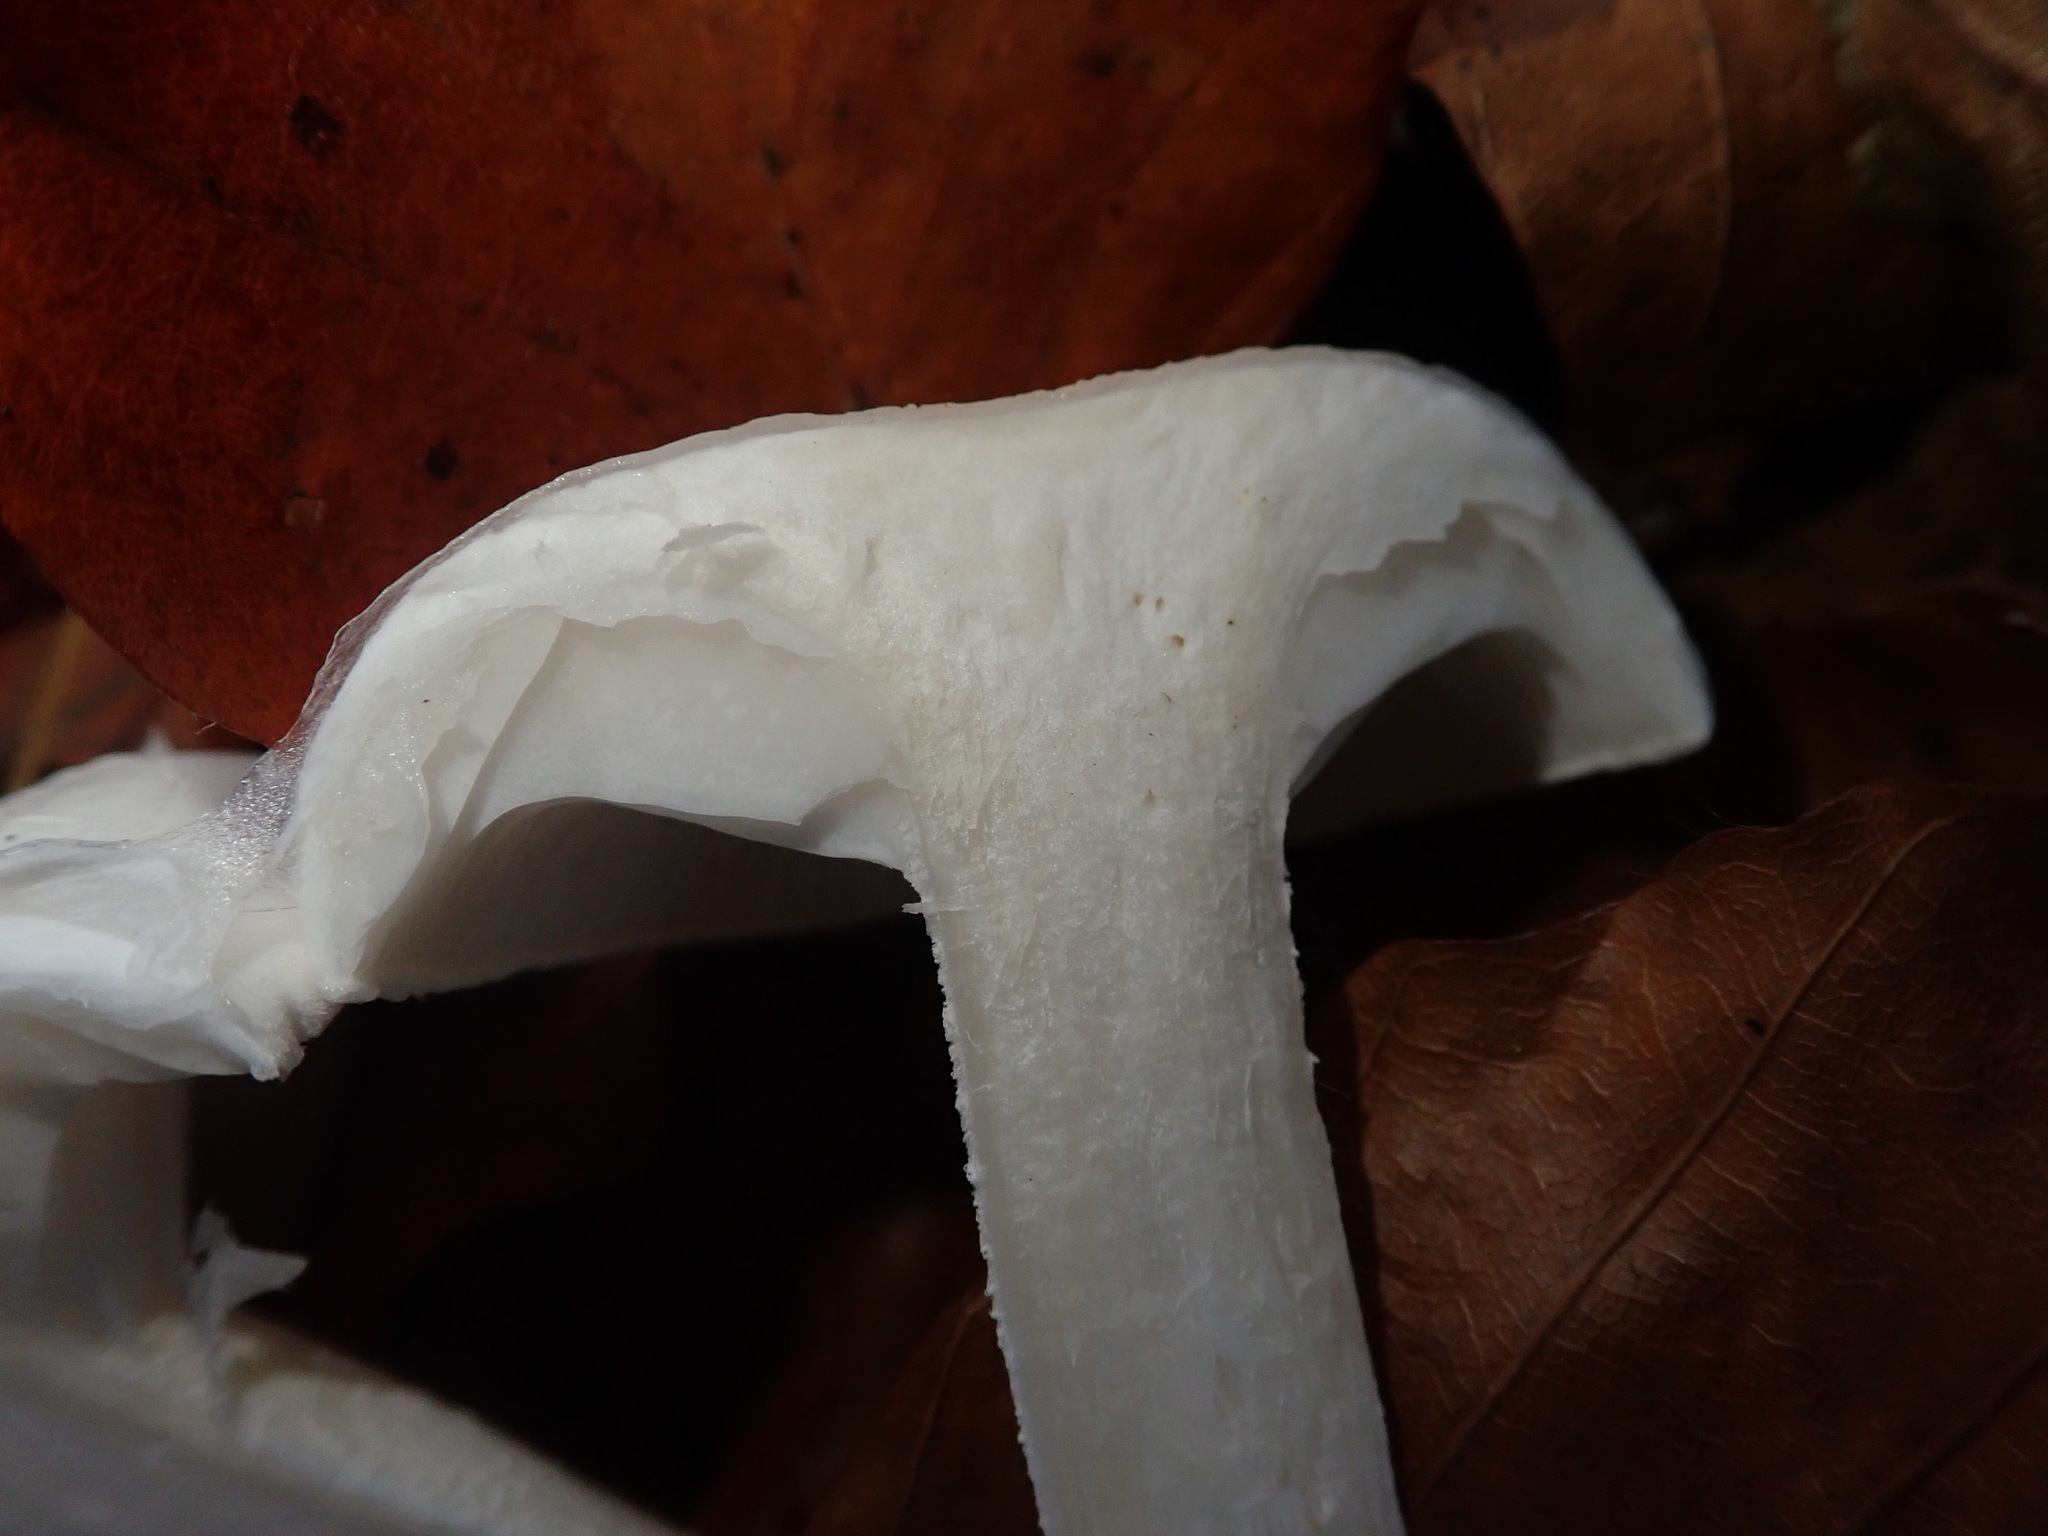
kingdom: Fungi
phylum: Basidiomycota
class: Agaricomycetes
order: Agaricales
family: Hygrophoraceae
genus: Hygrophorus
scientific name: Hygrophorus eburneus
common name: Ivory wax-cap
